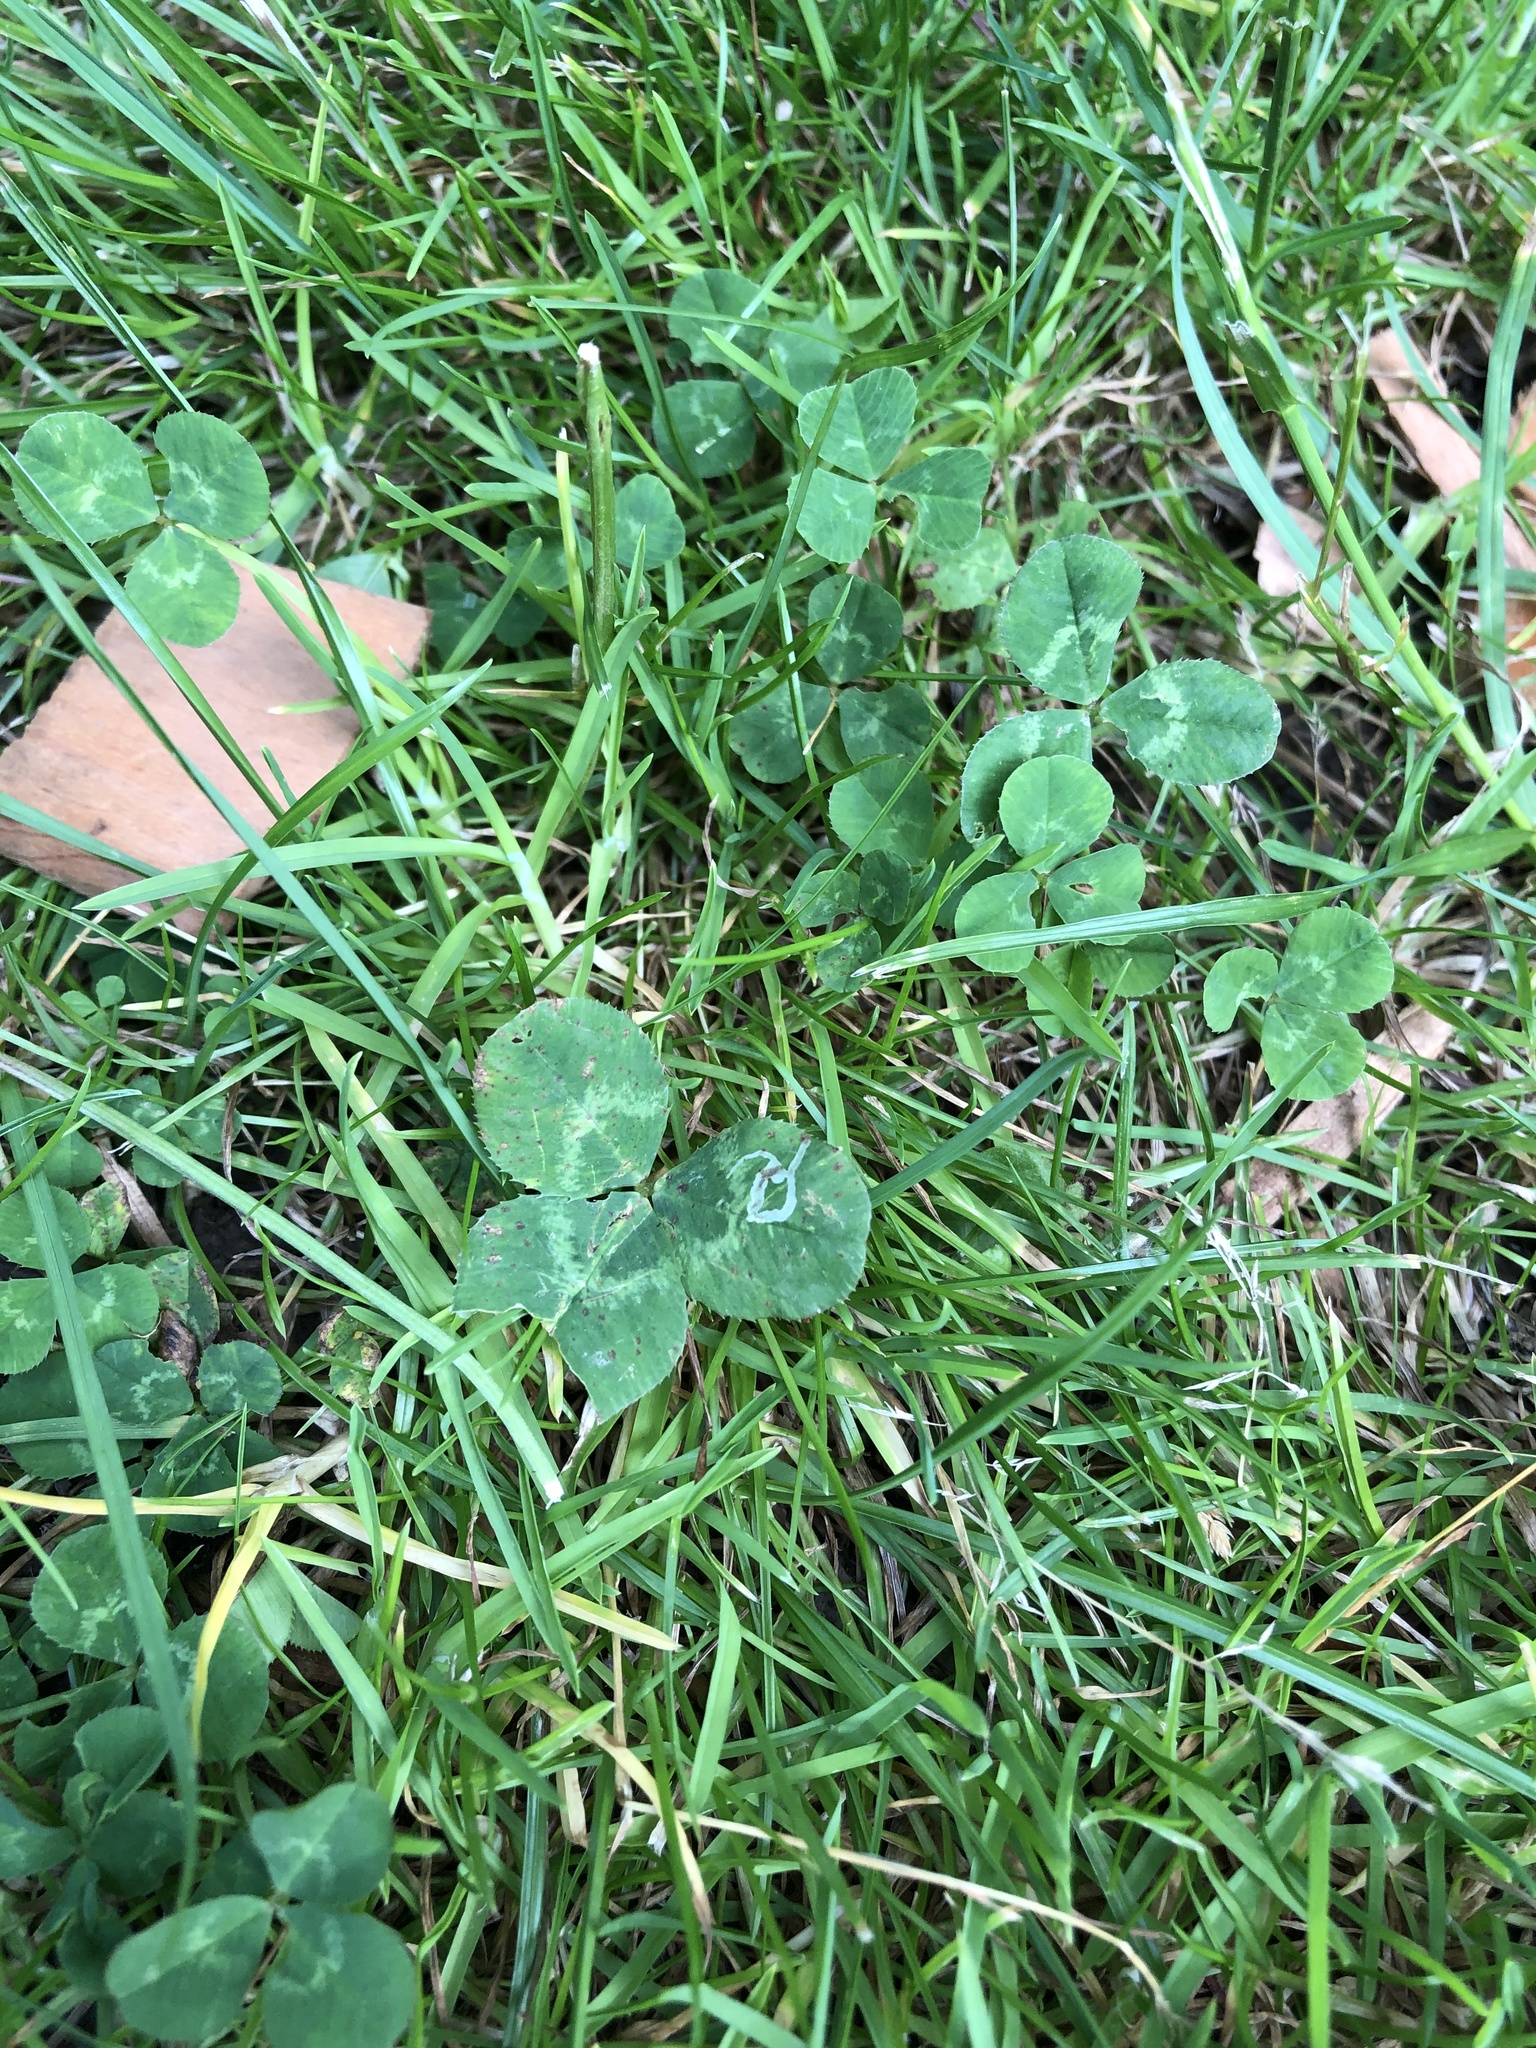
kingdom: Plantae
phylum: Tracheophyta
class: Magnoliopsida
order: Fabales
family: Fabaceae
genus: Trifolium
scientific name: Trifolium repens
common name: White clover
